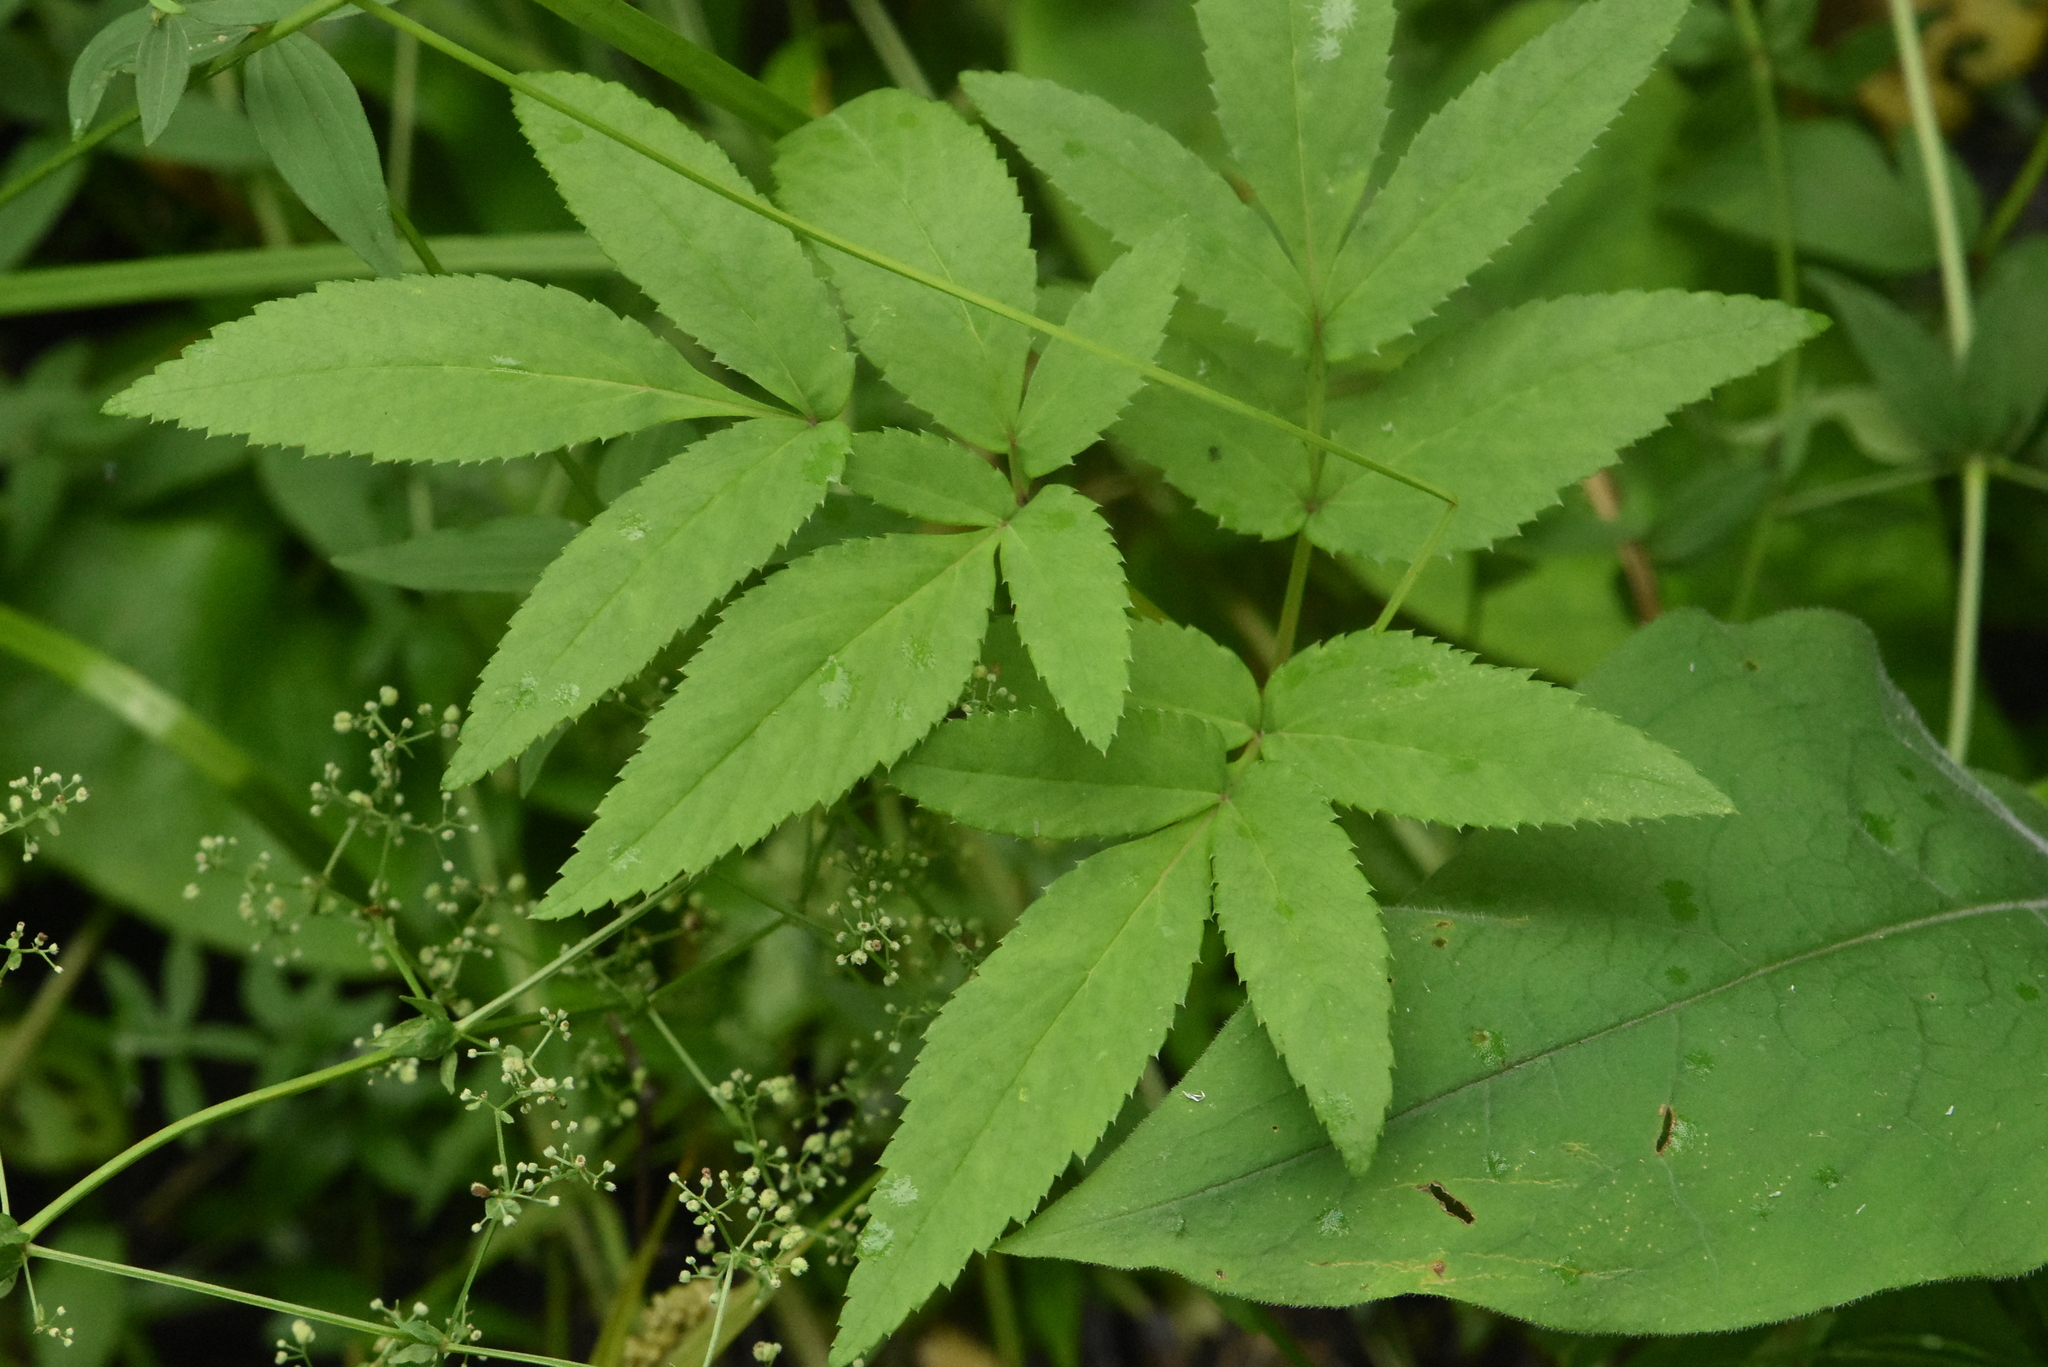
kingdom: Plantae
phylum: Tracheophyta
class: Magnoliopsida
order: Apiales
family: Apiaceae
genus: Angelica
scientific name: Angelica sylvestris
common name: Wild angelica
